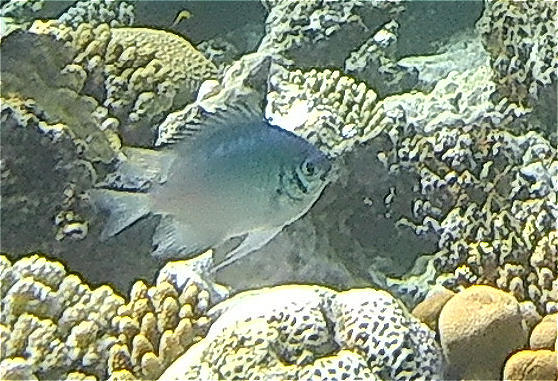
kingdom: Animalia
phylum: Chordata
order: Perciformes
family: Pomacentridae
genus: Amblyglyphidodon
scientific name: Amblyglyphidodon indicus
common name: Maldives damselfish
